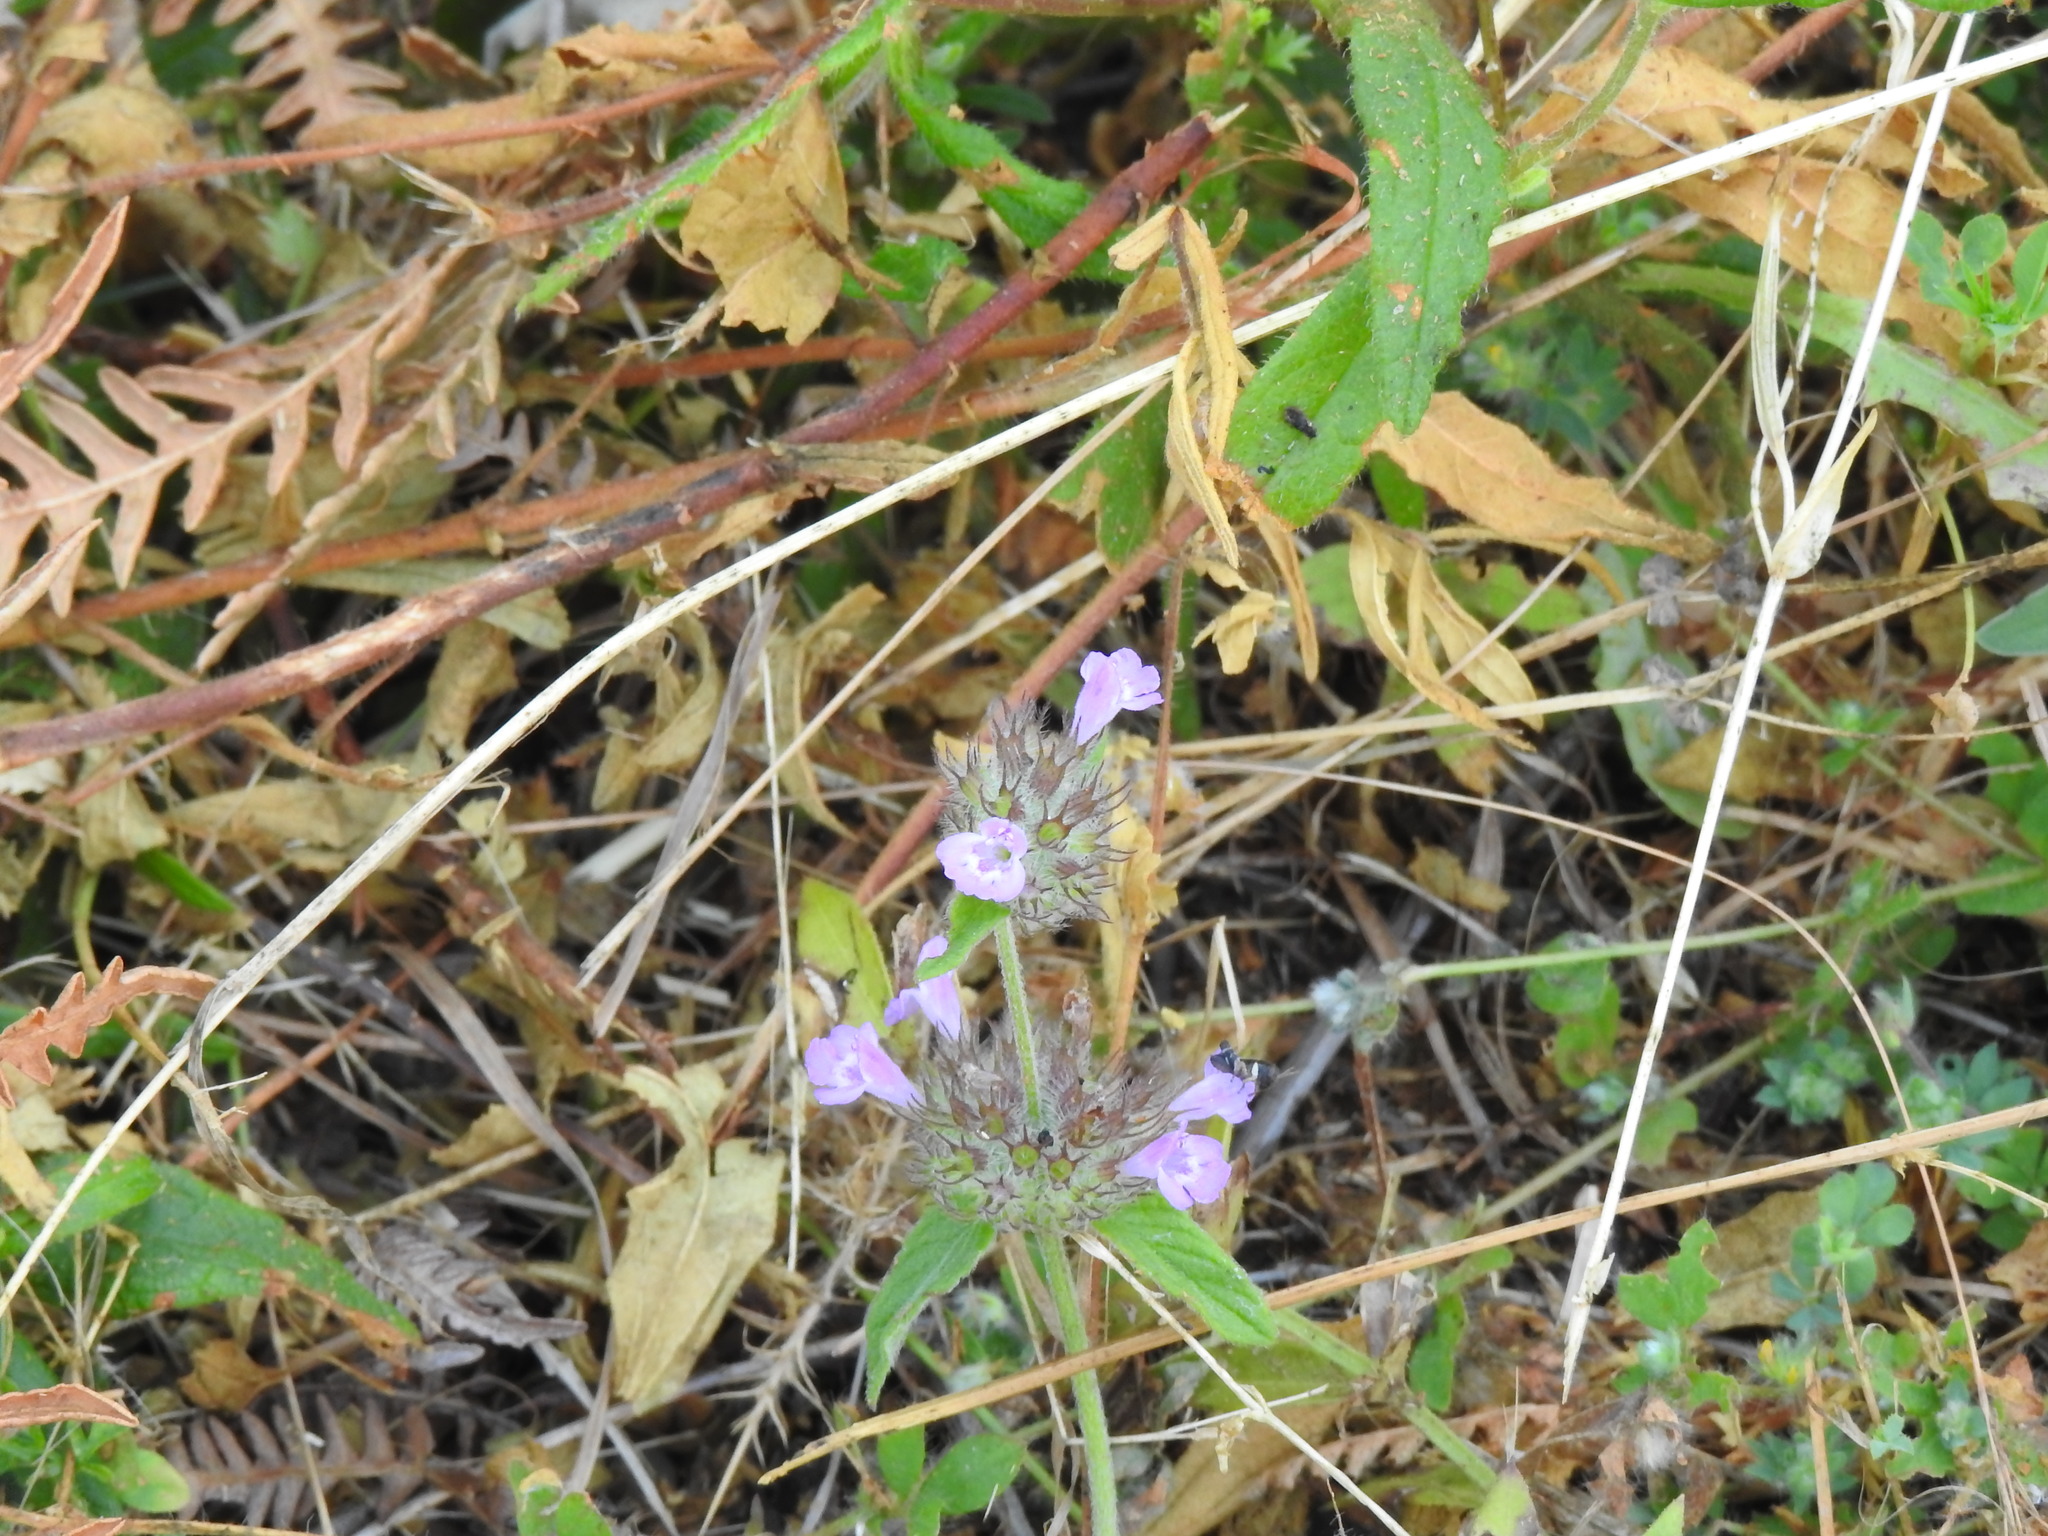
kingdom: Plantae
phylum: Tracheophyta
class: Magnoliopsida
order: Lamiales
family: Lamiaceae
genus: Clinopodium
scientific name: Clinopodium vulgare
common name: Wild basil
